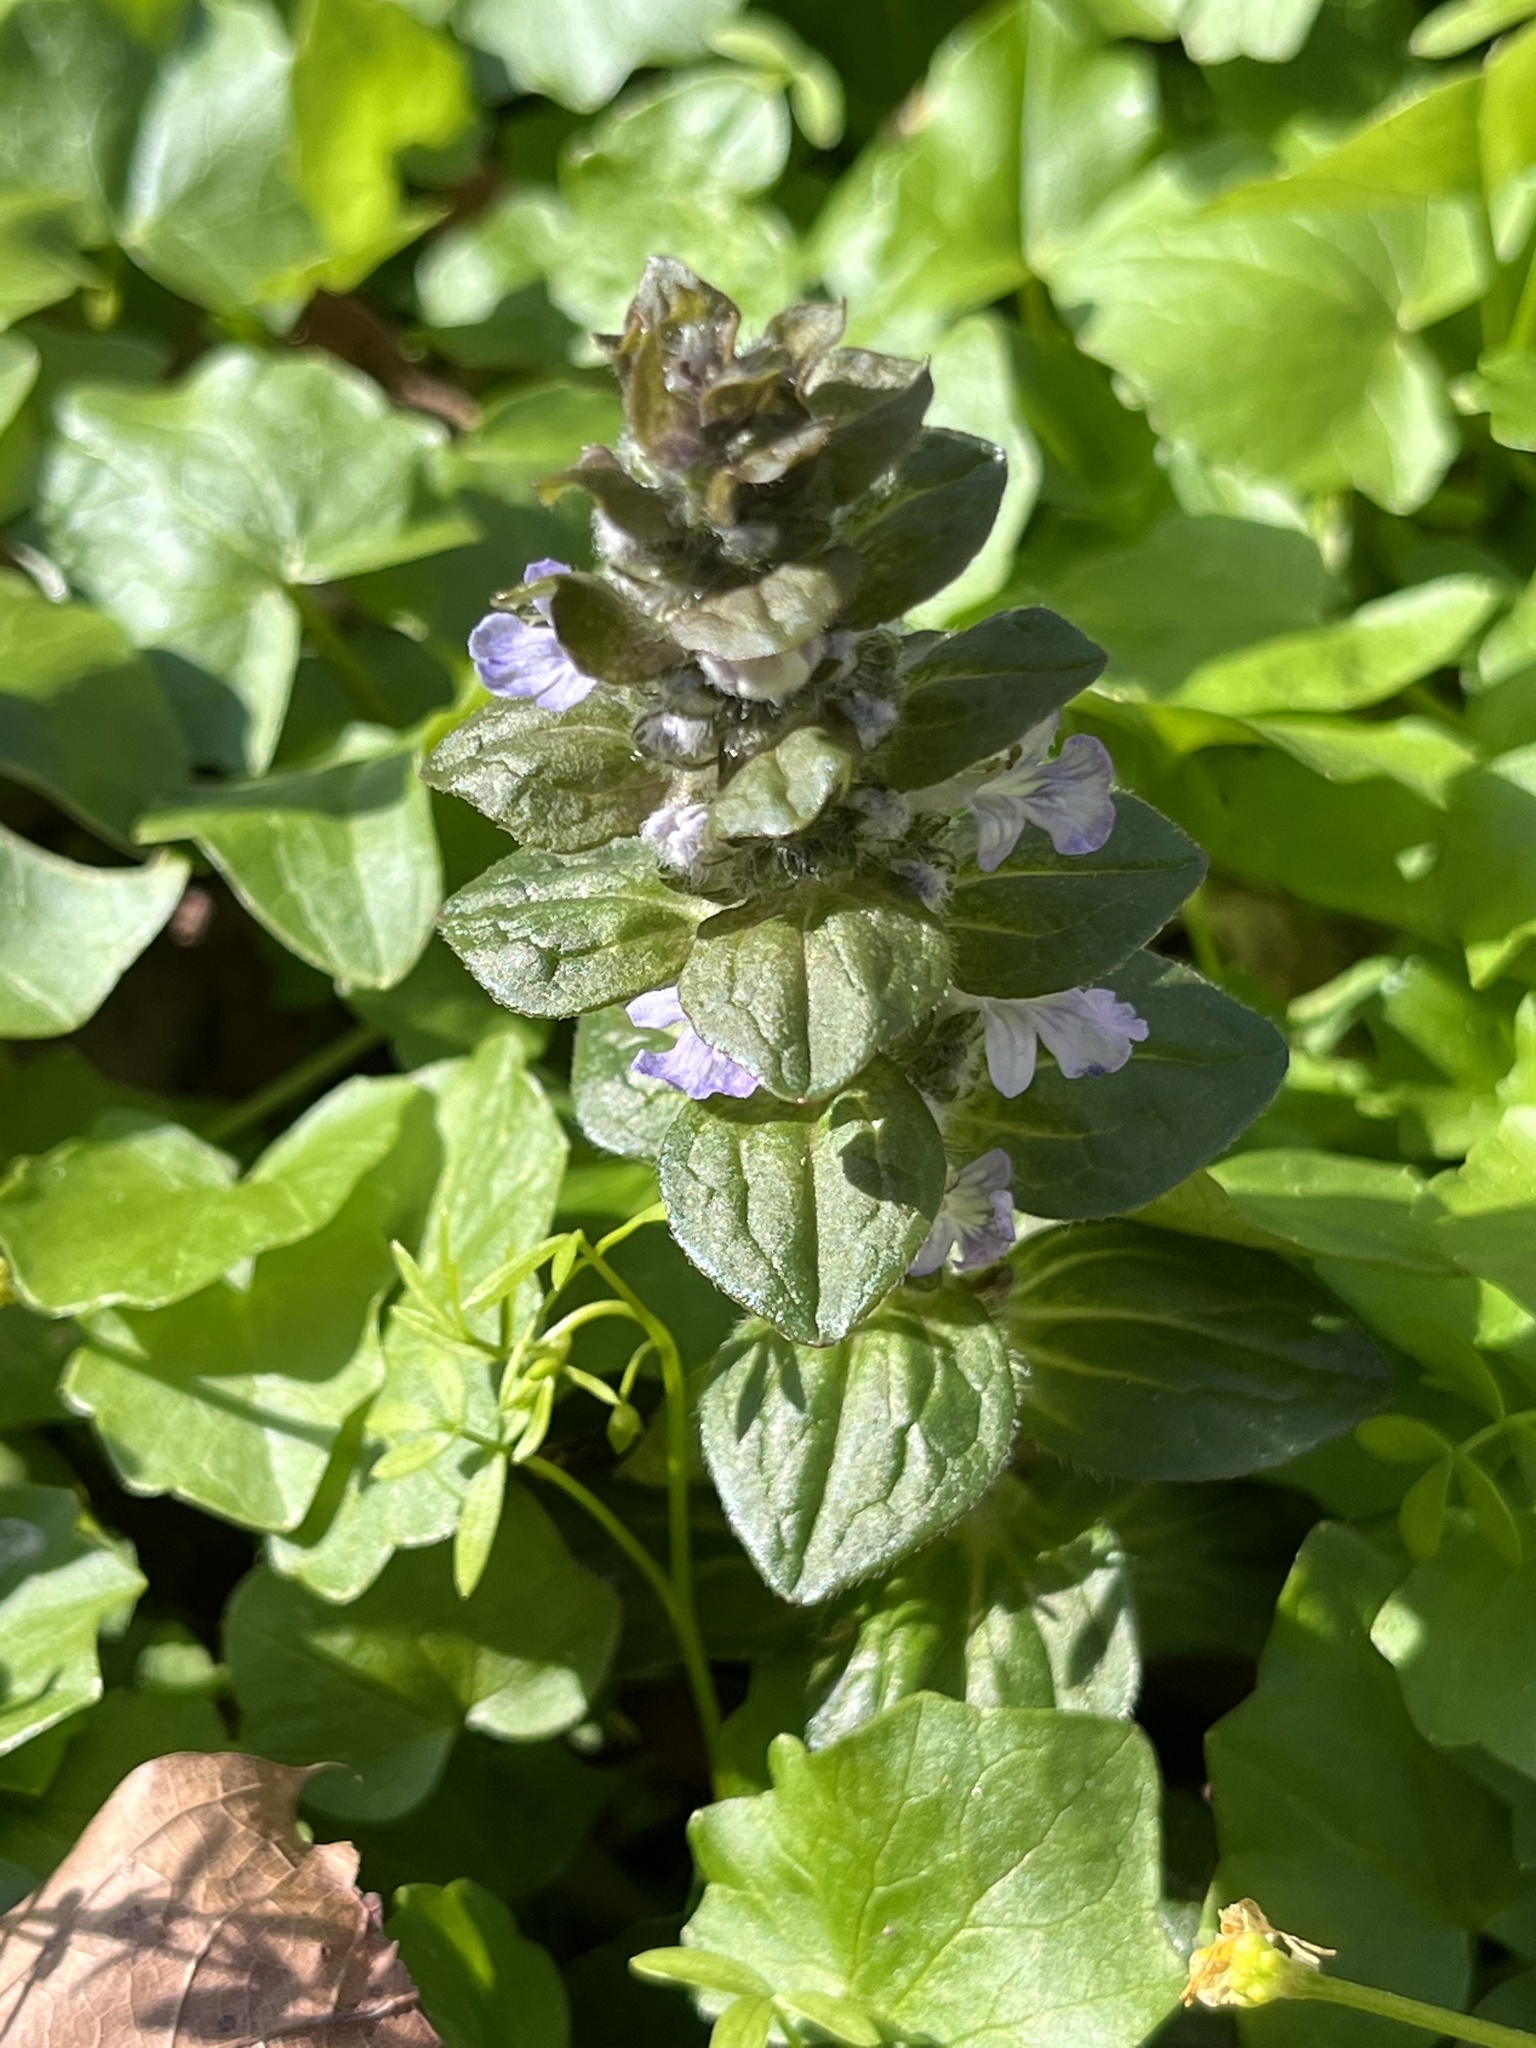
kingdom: Plantae
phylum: Tracheophyta
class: Magnoliopsida
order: Lamiales
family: Lamiaceae
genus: Ajuga
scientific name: Ajuga reptans
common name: Bugle
